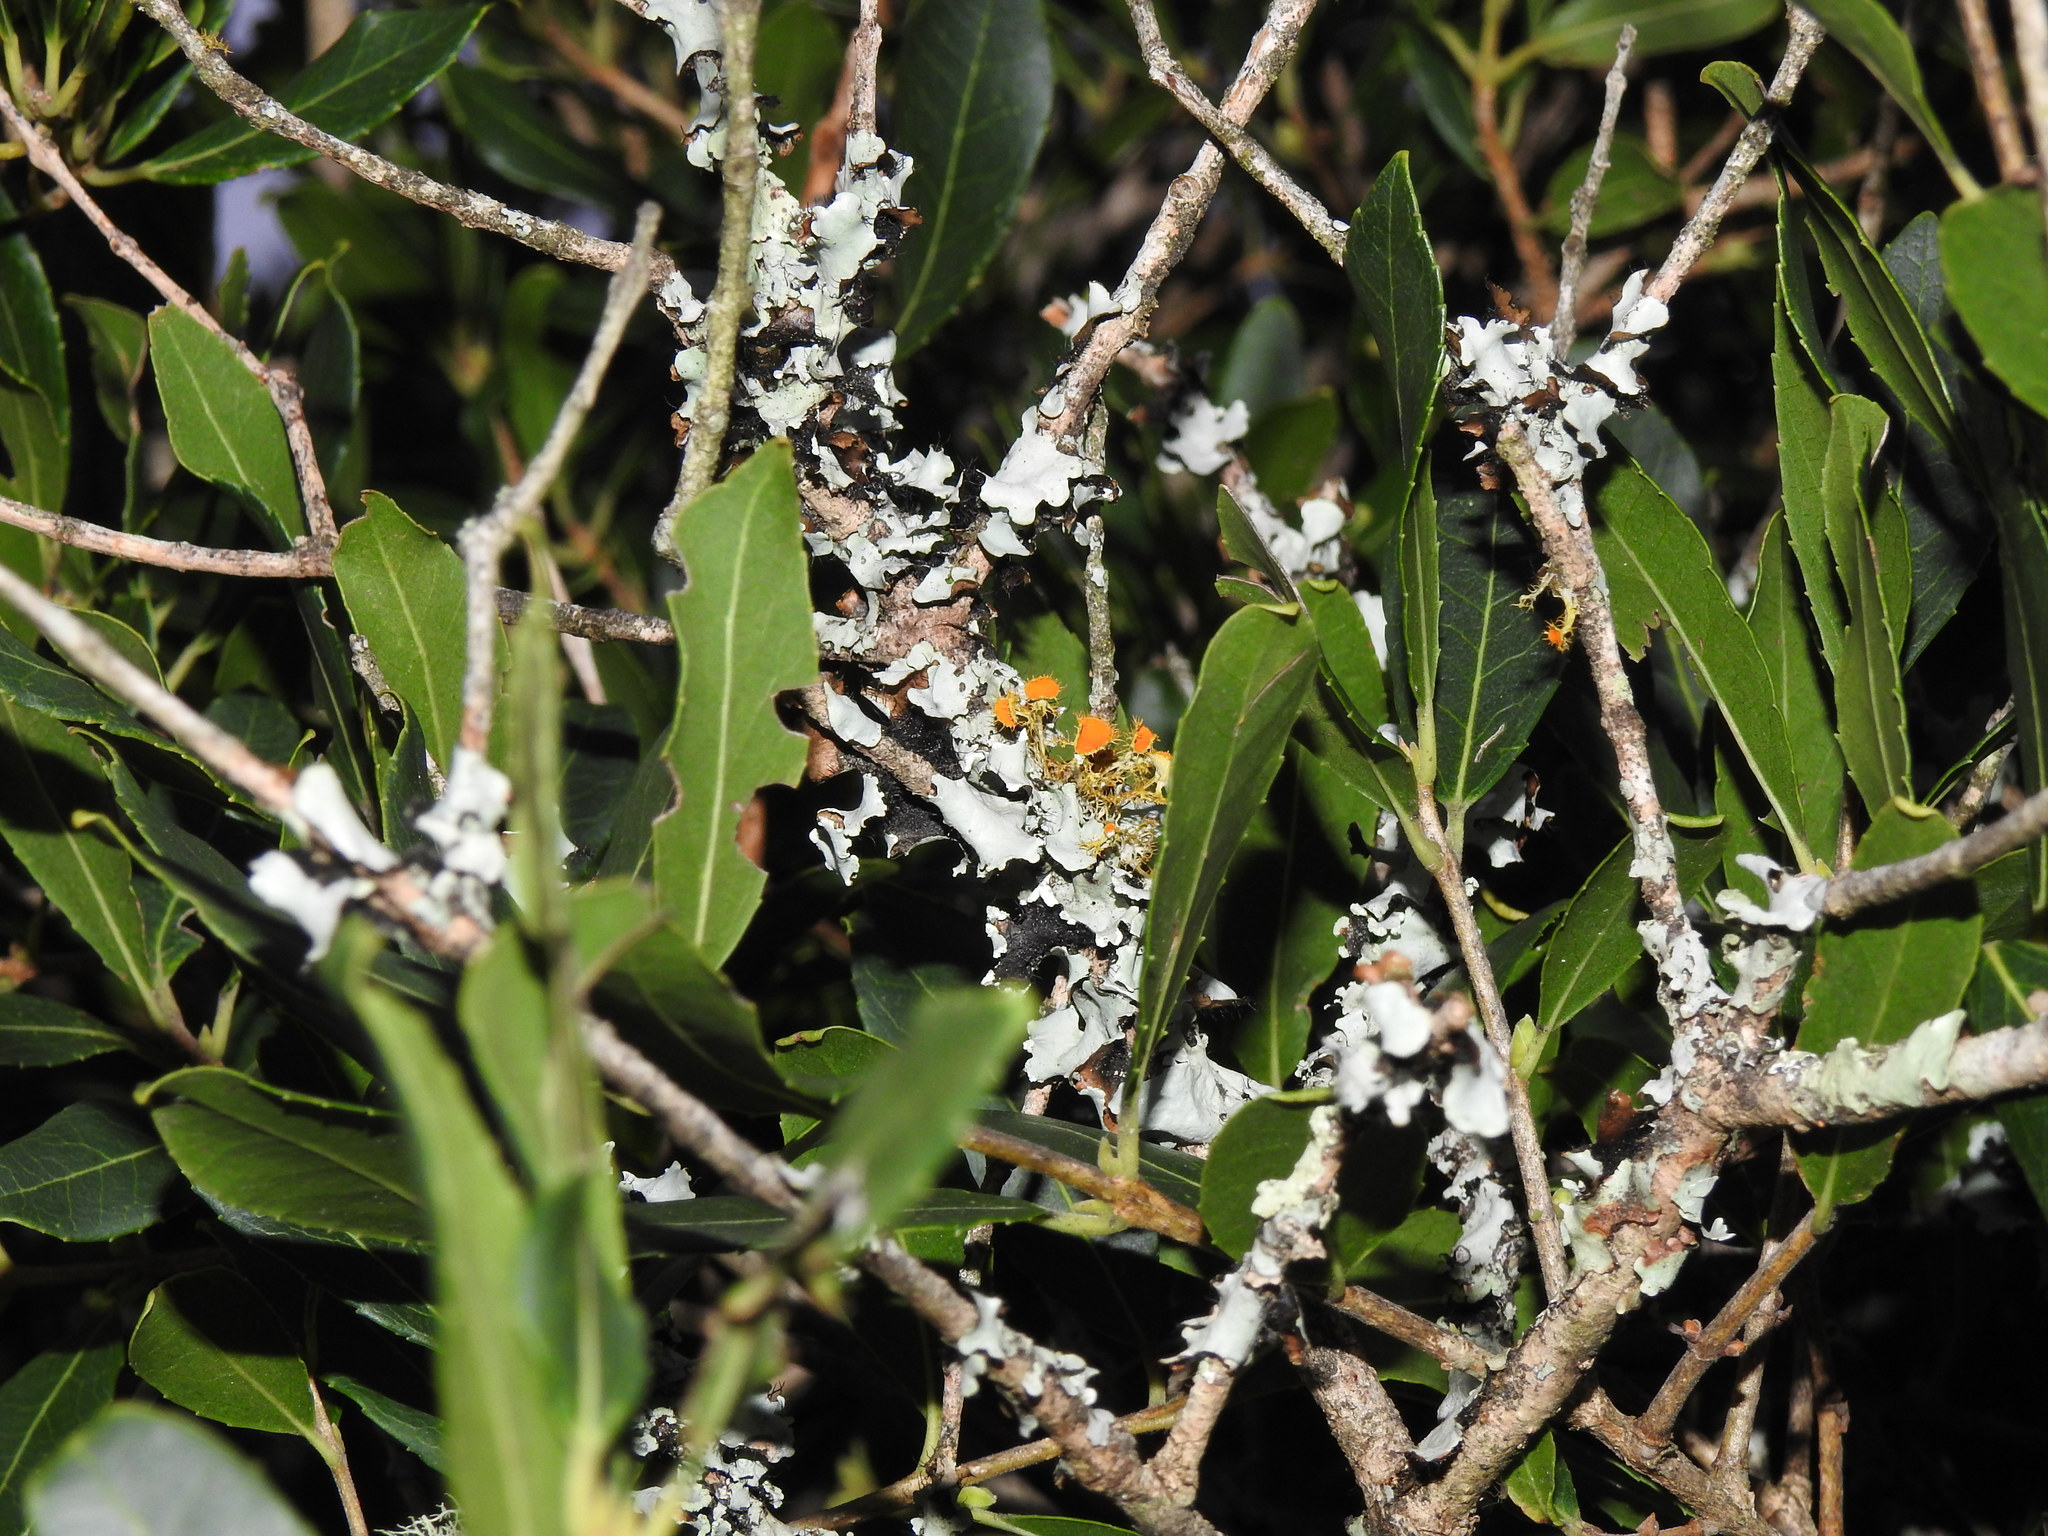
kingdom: Fungi
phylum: Ascomycota
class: Lecanoromycetes
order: Teloschistales
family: Teloschistaceae
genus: Niorma
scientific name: Niorma chrysophthalma
